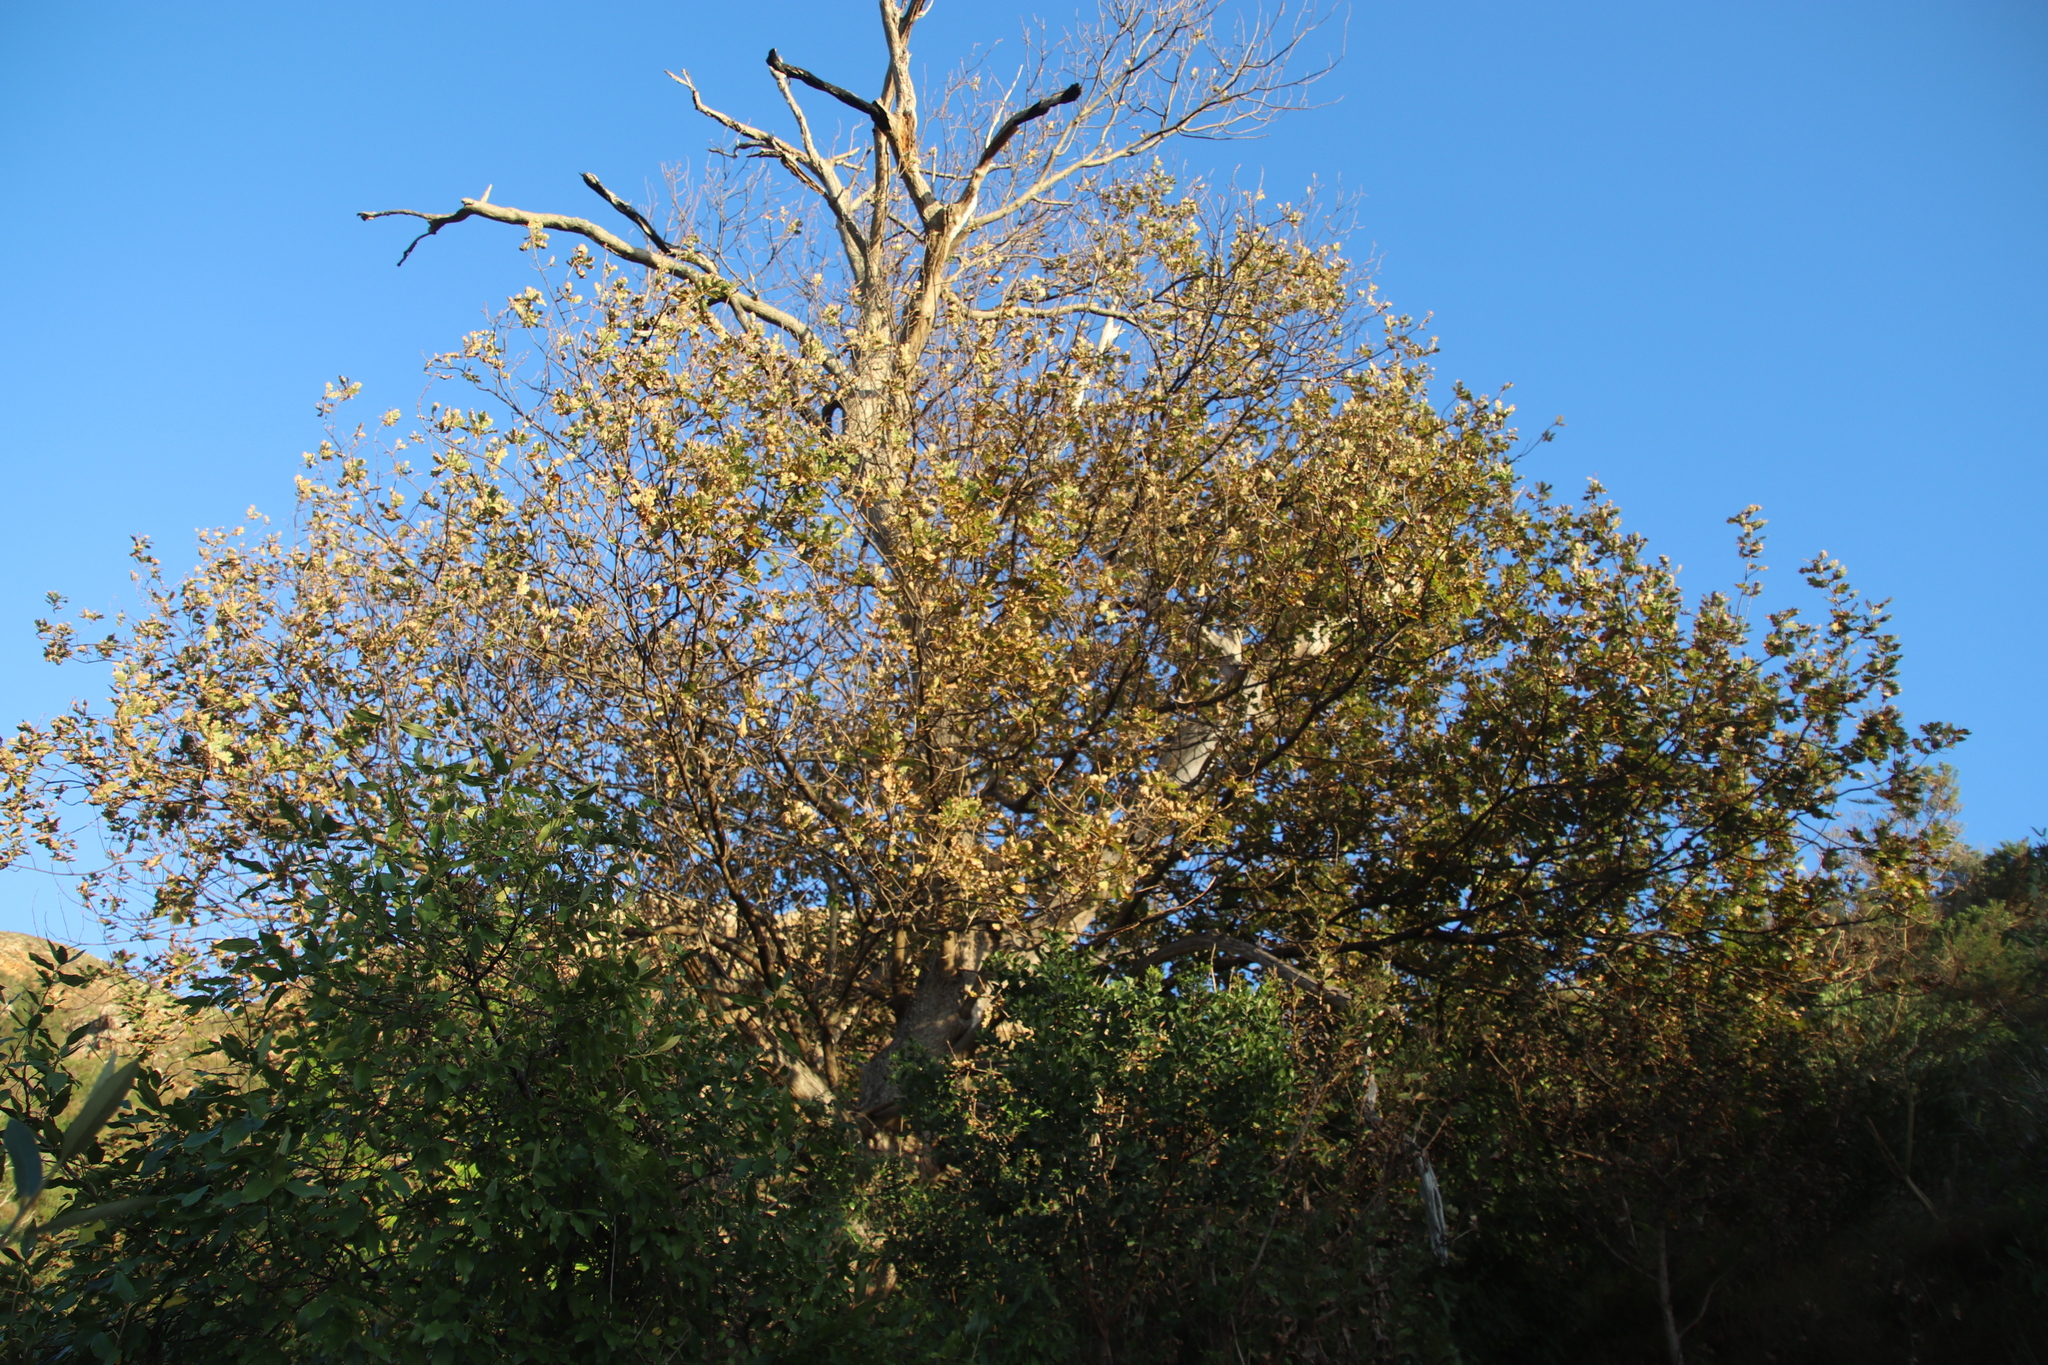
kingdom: Plantae
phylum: Tracheophyta
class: Magnoliopsida
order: Fagales
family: Fagaceae
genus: Quercus
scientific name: Quercus robur
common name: Pedunculate oak
